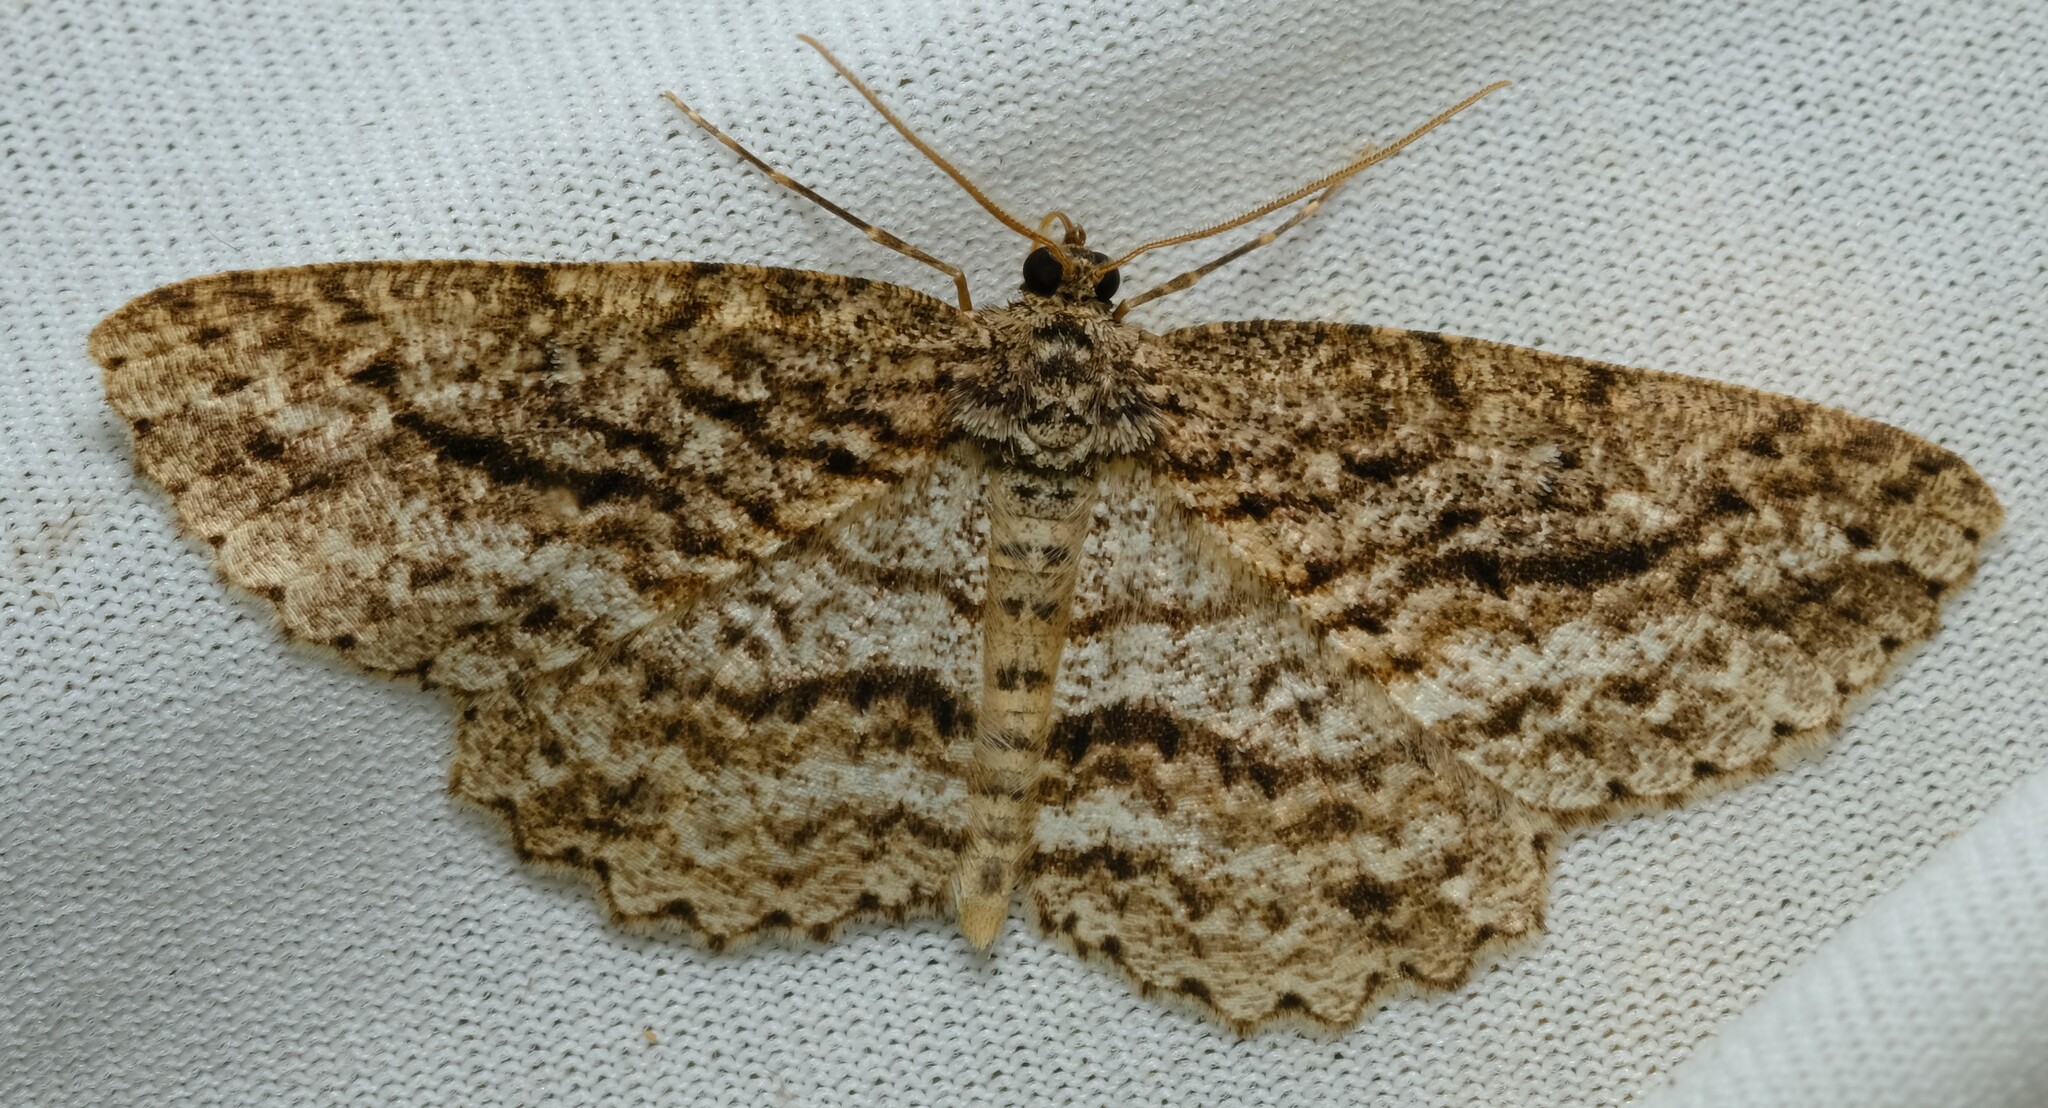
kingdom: Animalia
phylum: Arthropoda
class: Insecta
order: Lepidoptera
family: Geometridae
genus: Ectropis
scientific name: Ectropis fractaria
